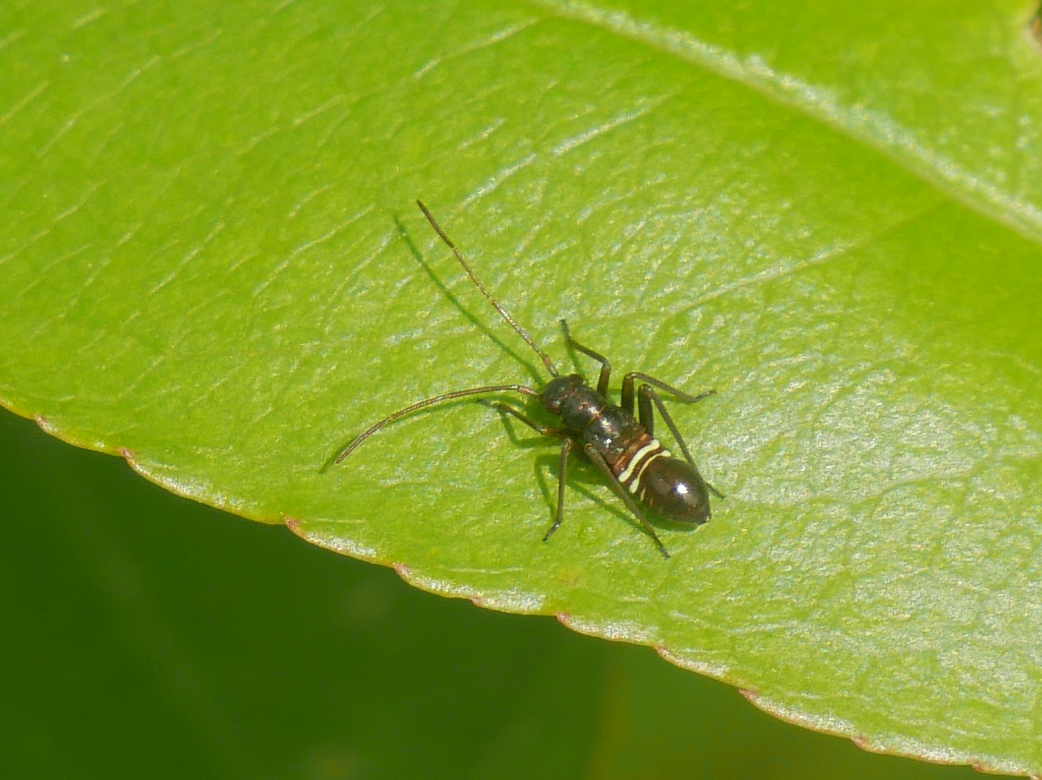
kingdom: Animalia
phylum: Arthropoda
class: Insecta
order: Hemiptera
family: Miridae
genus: Miris
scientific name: Miris striatus
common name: Fine streaked bugkin
